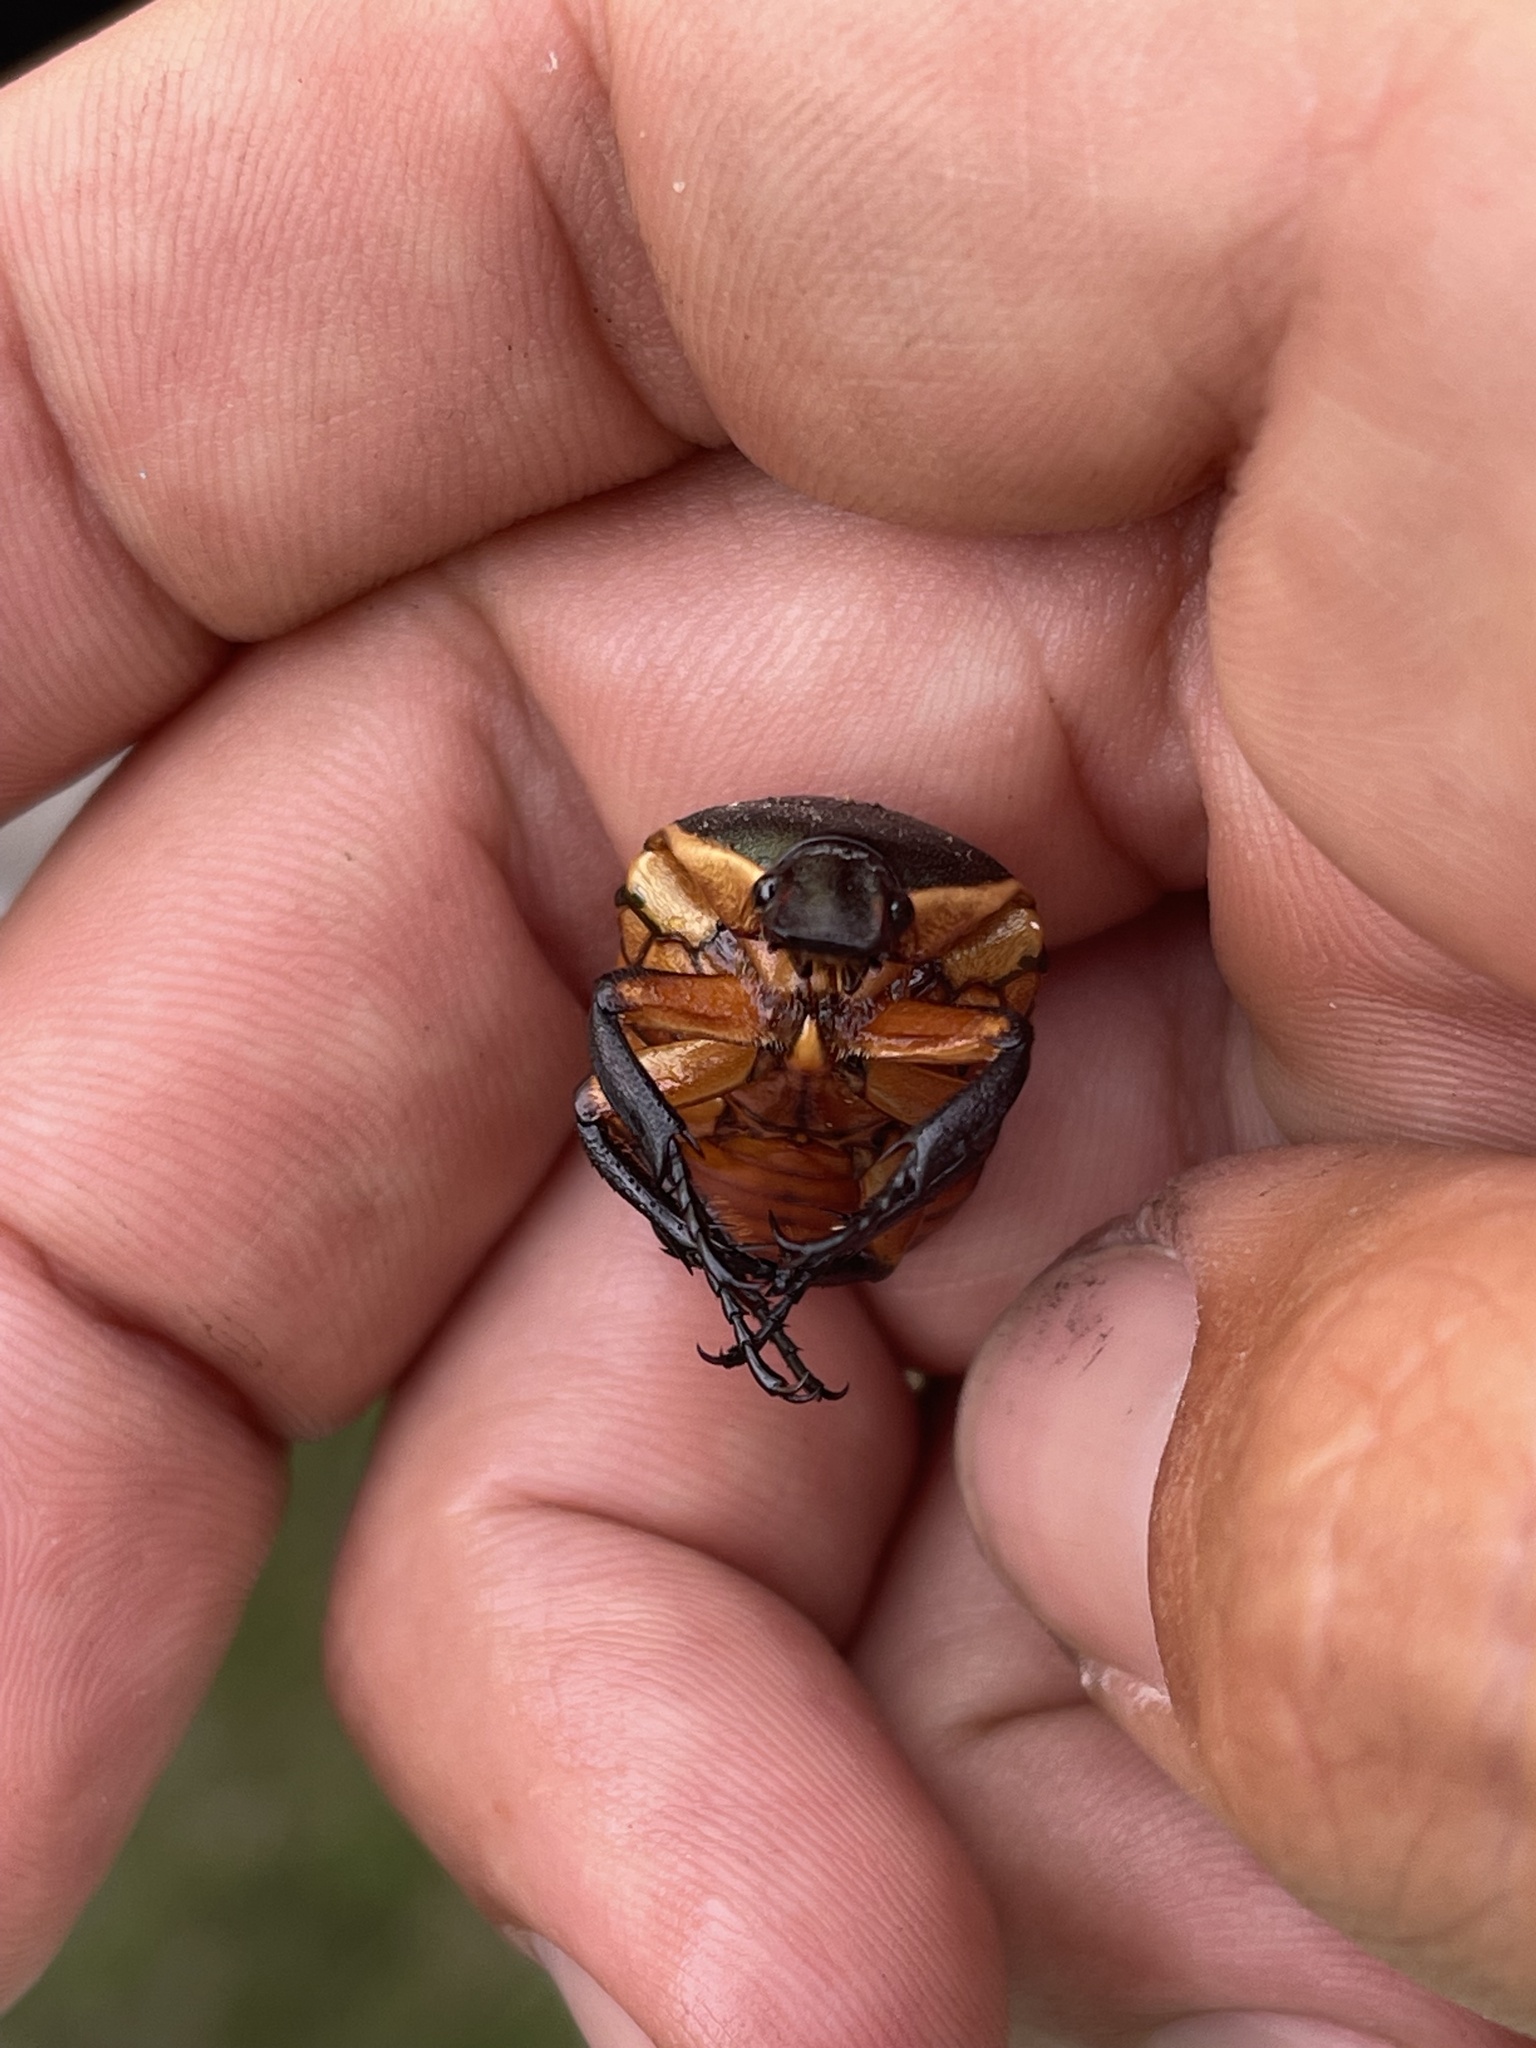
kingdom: Animalia
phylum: Arthropoda
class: Insecta
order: Coleoptera
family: Scarabaeidae
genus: Pedinorrhina
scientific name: Pedinorrhina
